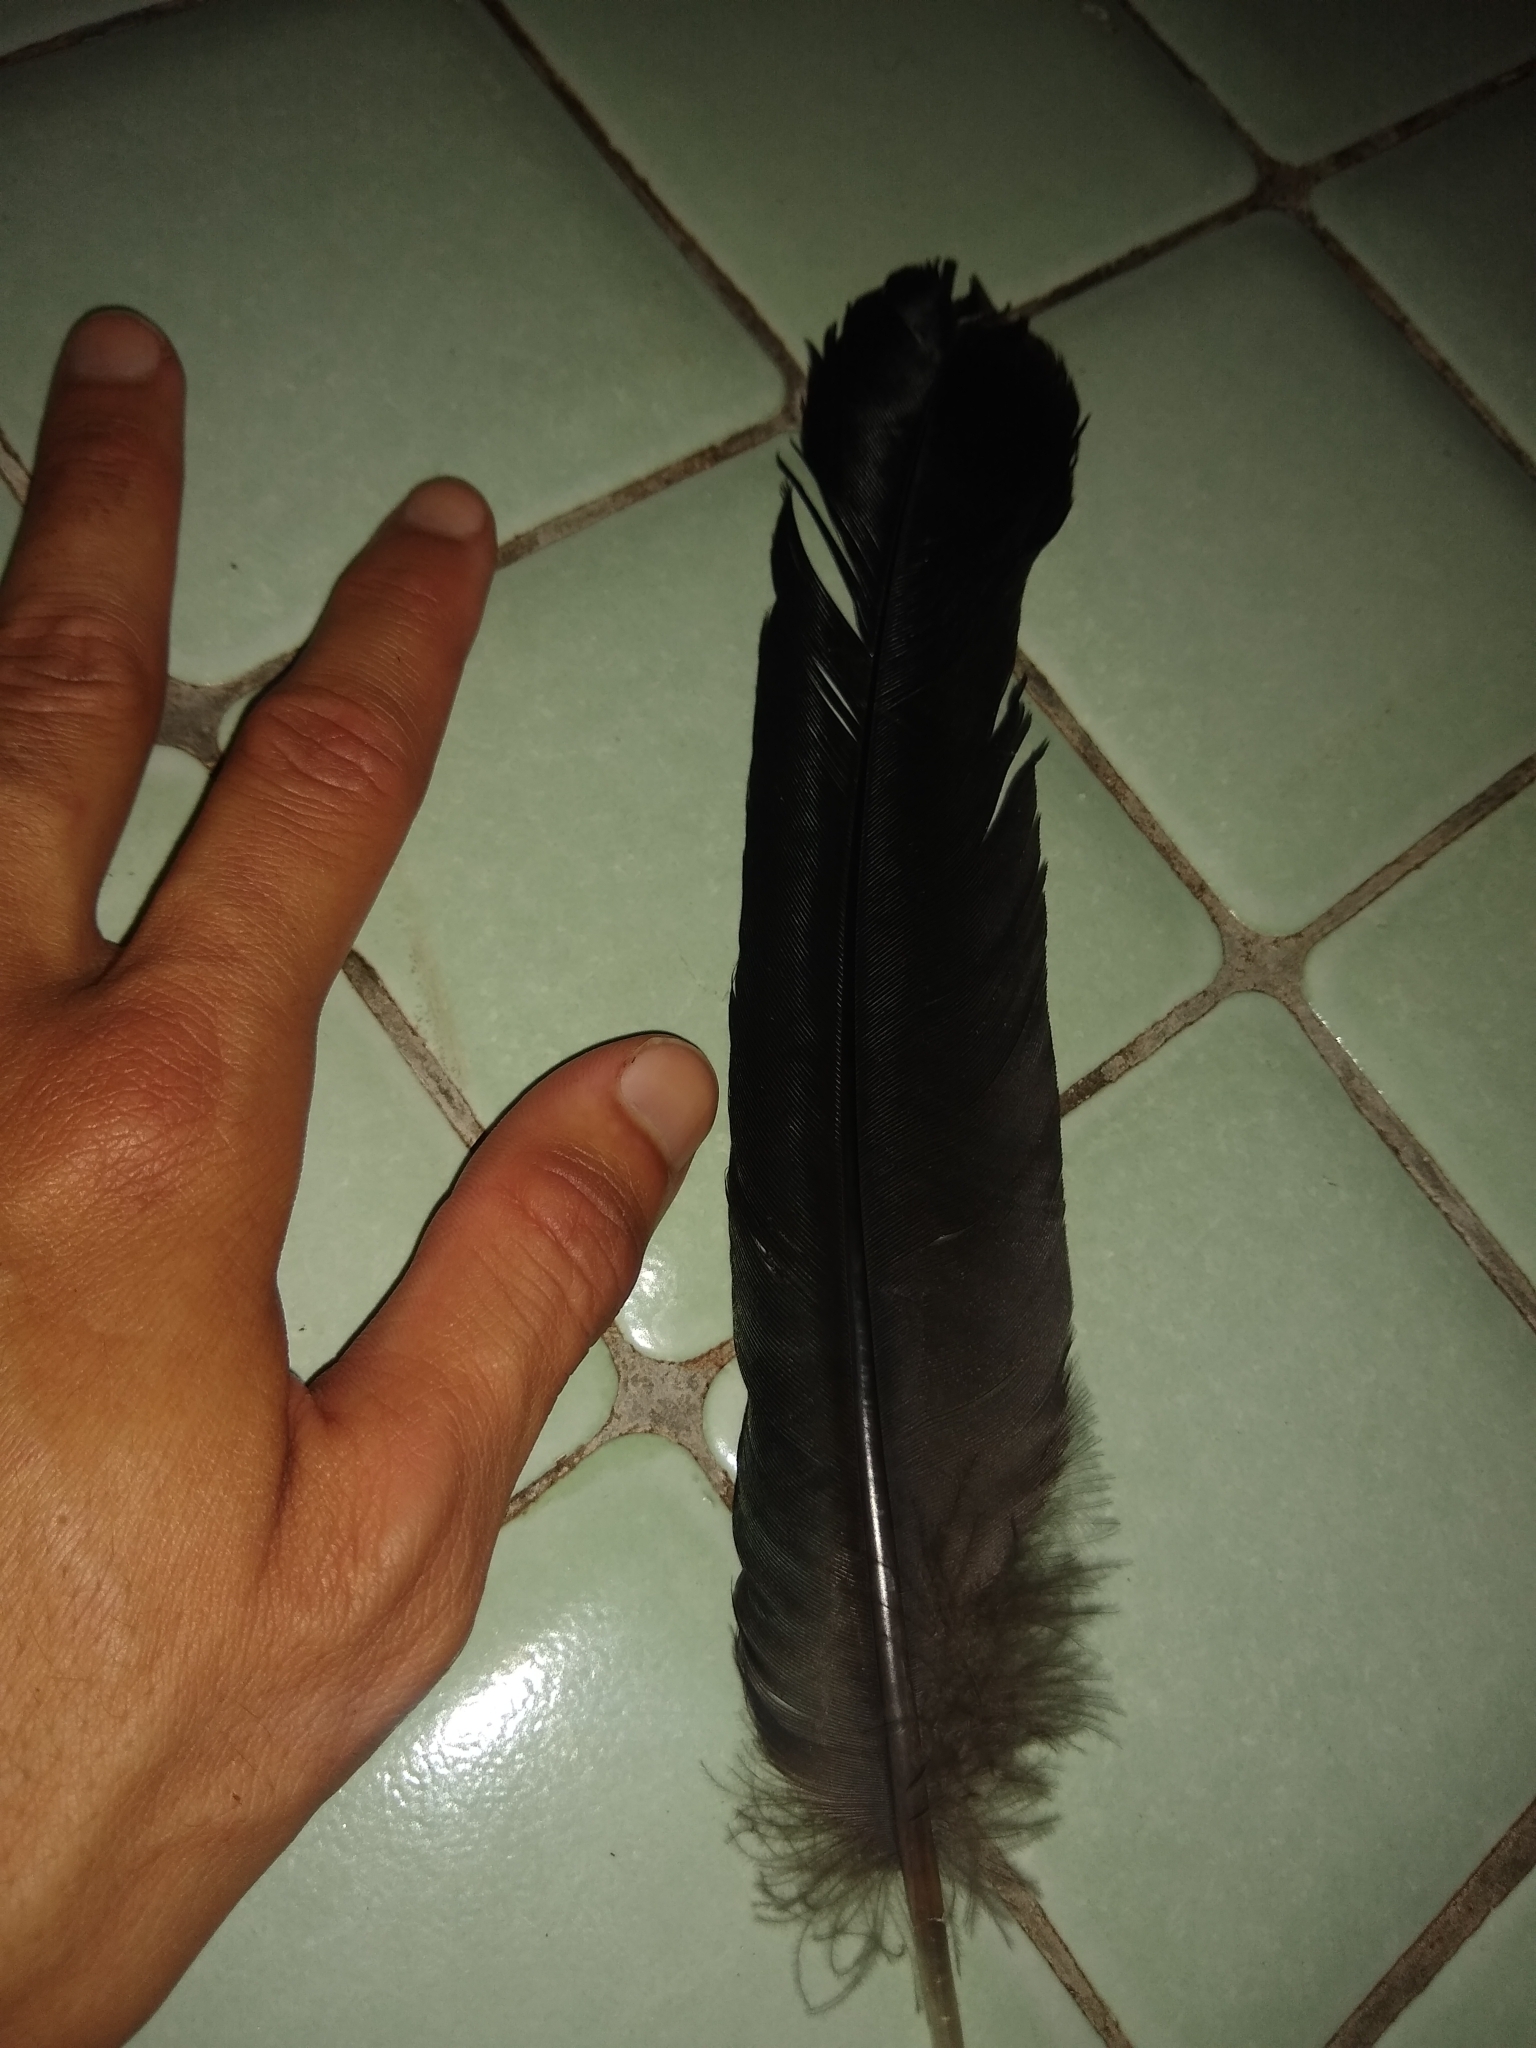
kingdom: Animalia
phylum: Chordata
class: Aves
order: Accipitriformes
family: Cathartidae
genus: Coragyps
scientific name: Coragyps atratus
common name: Black vulture
